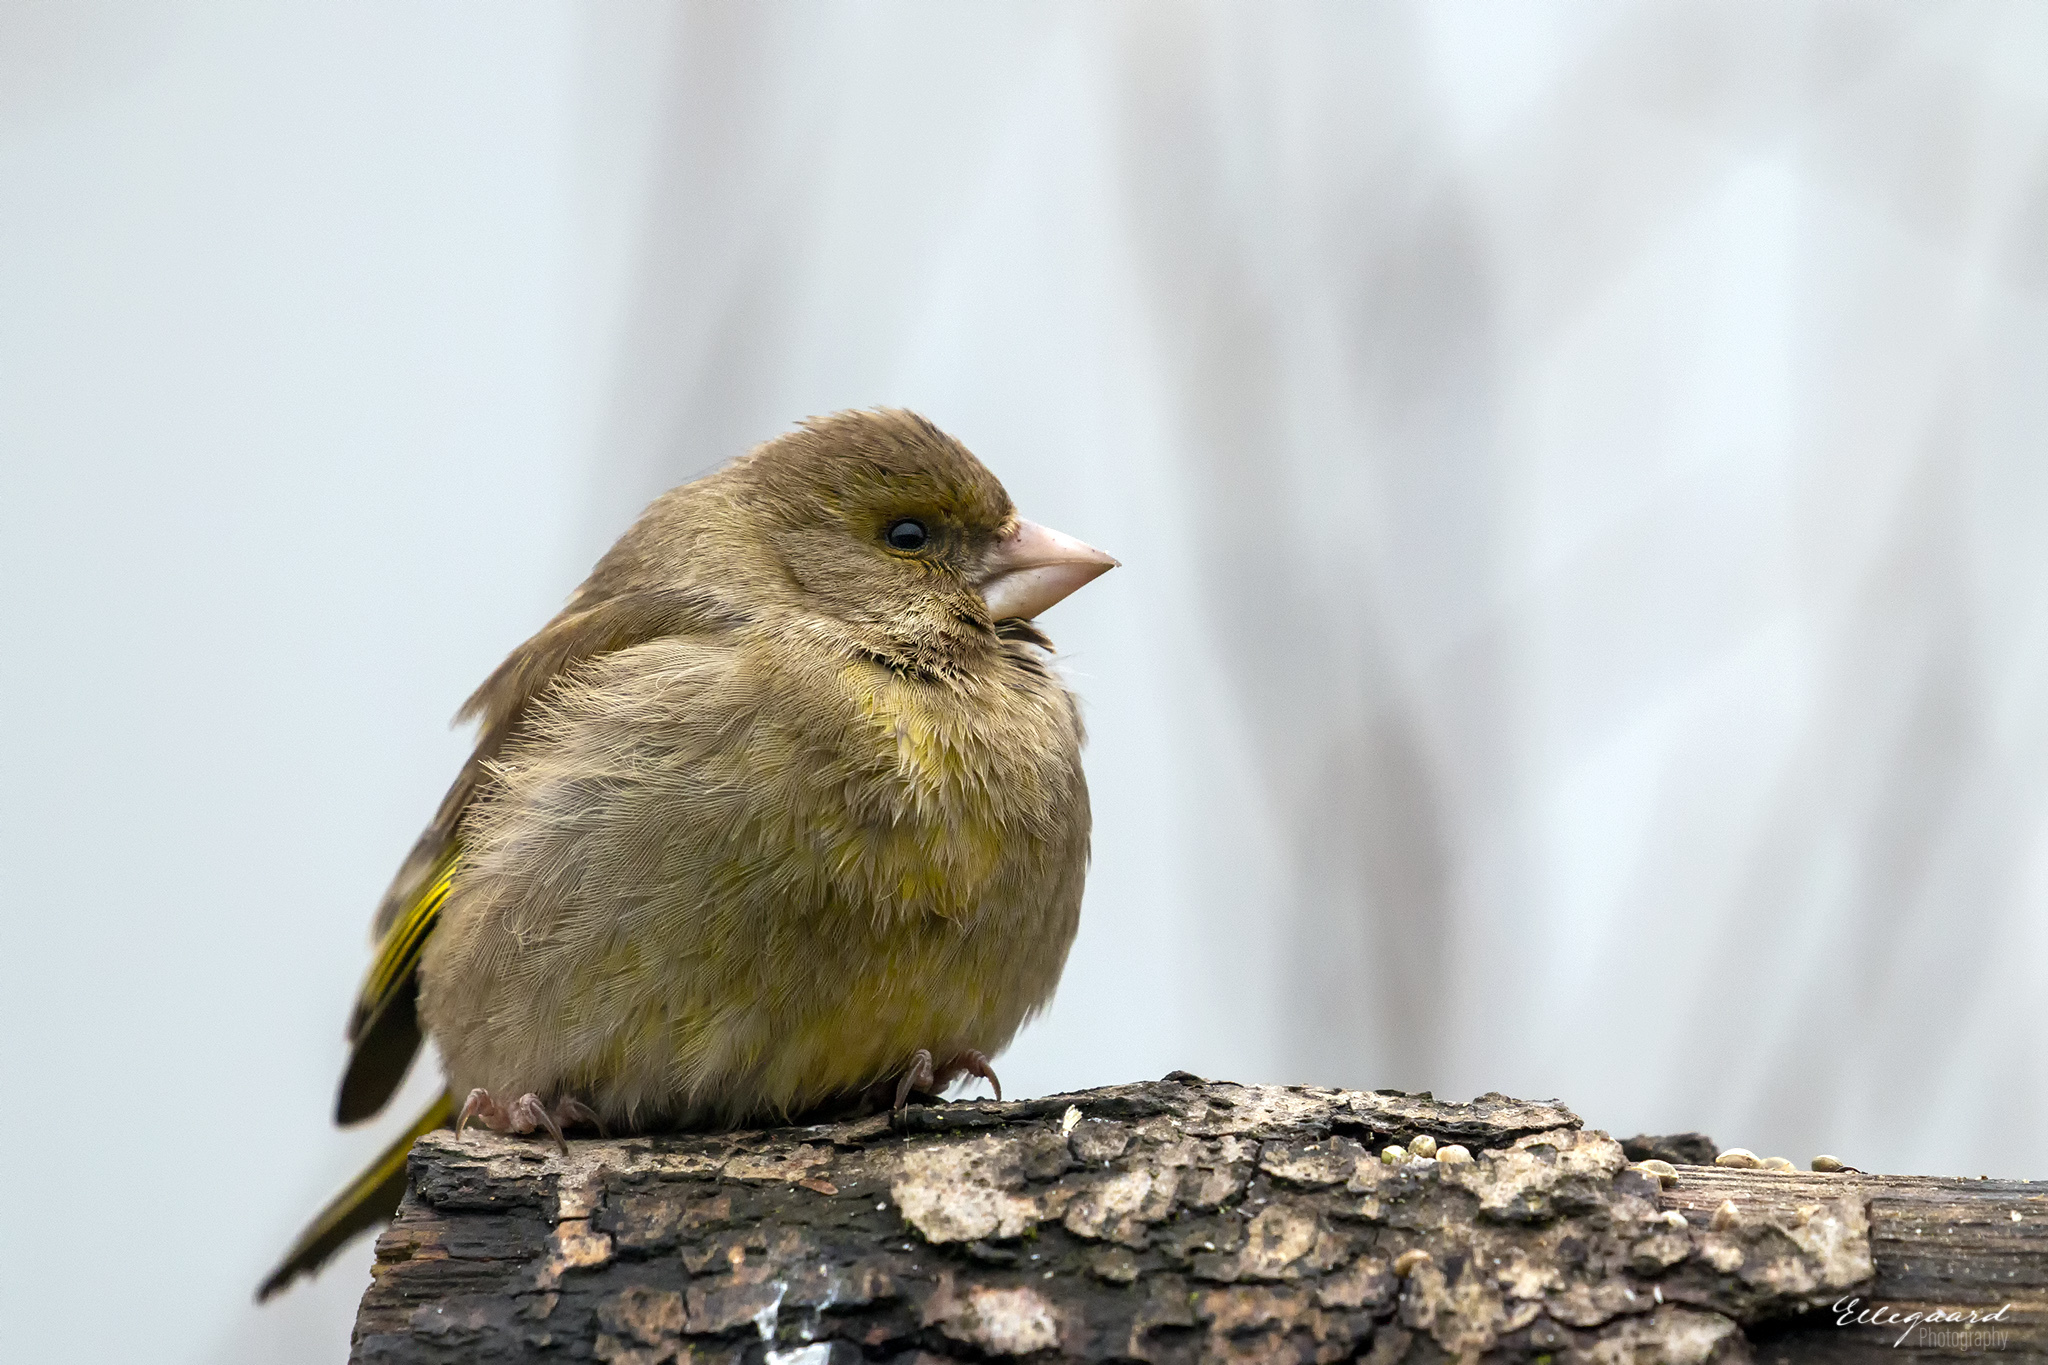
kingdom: Plantae
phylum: Tracheophyta
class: Liliopsida
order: Poales
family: Poaceae
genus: Chloris
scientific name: Chloris chloris
